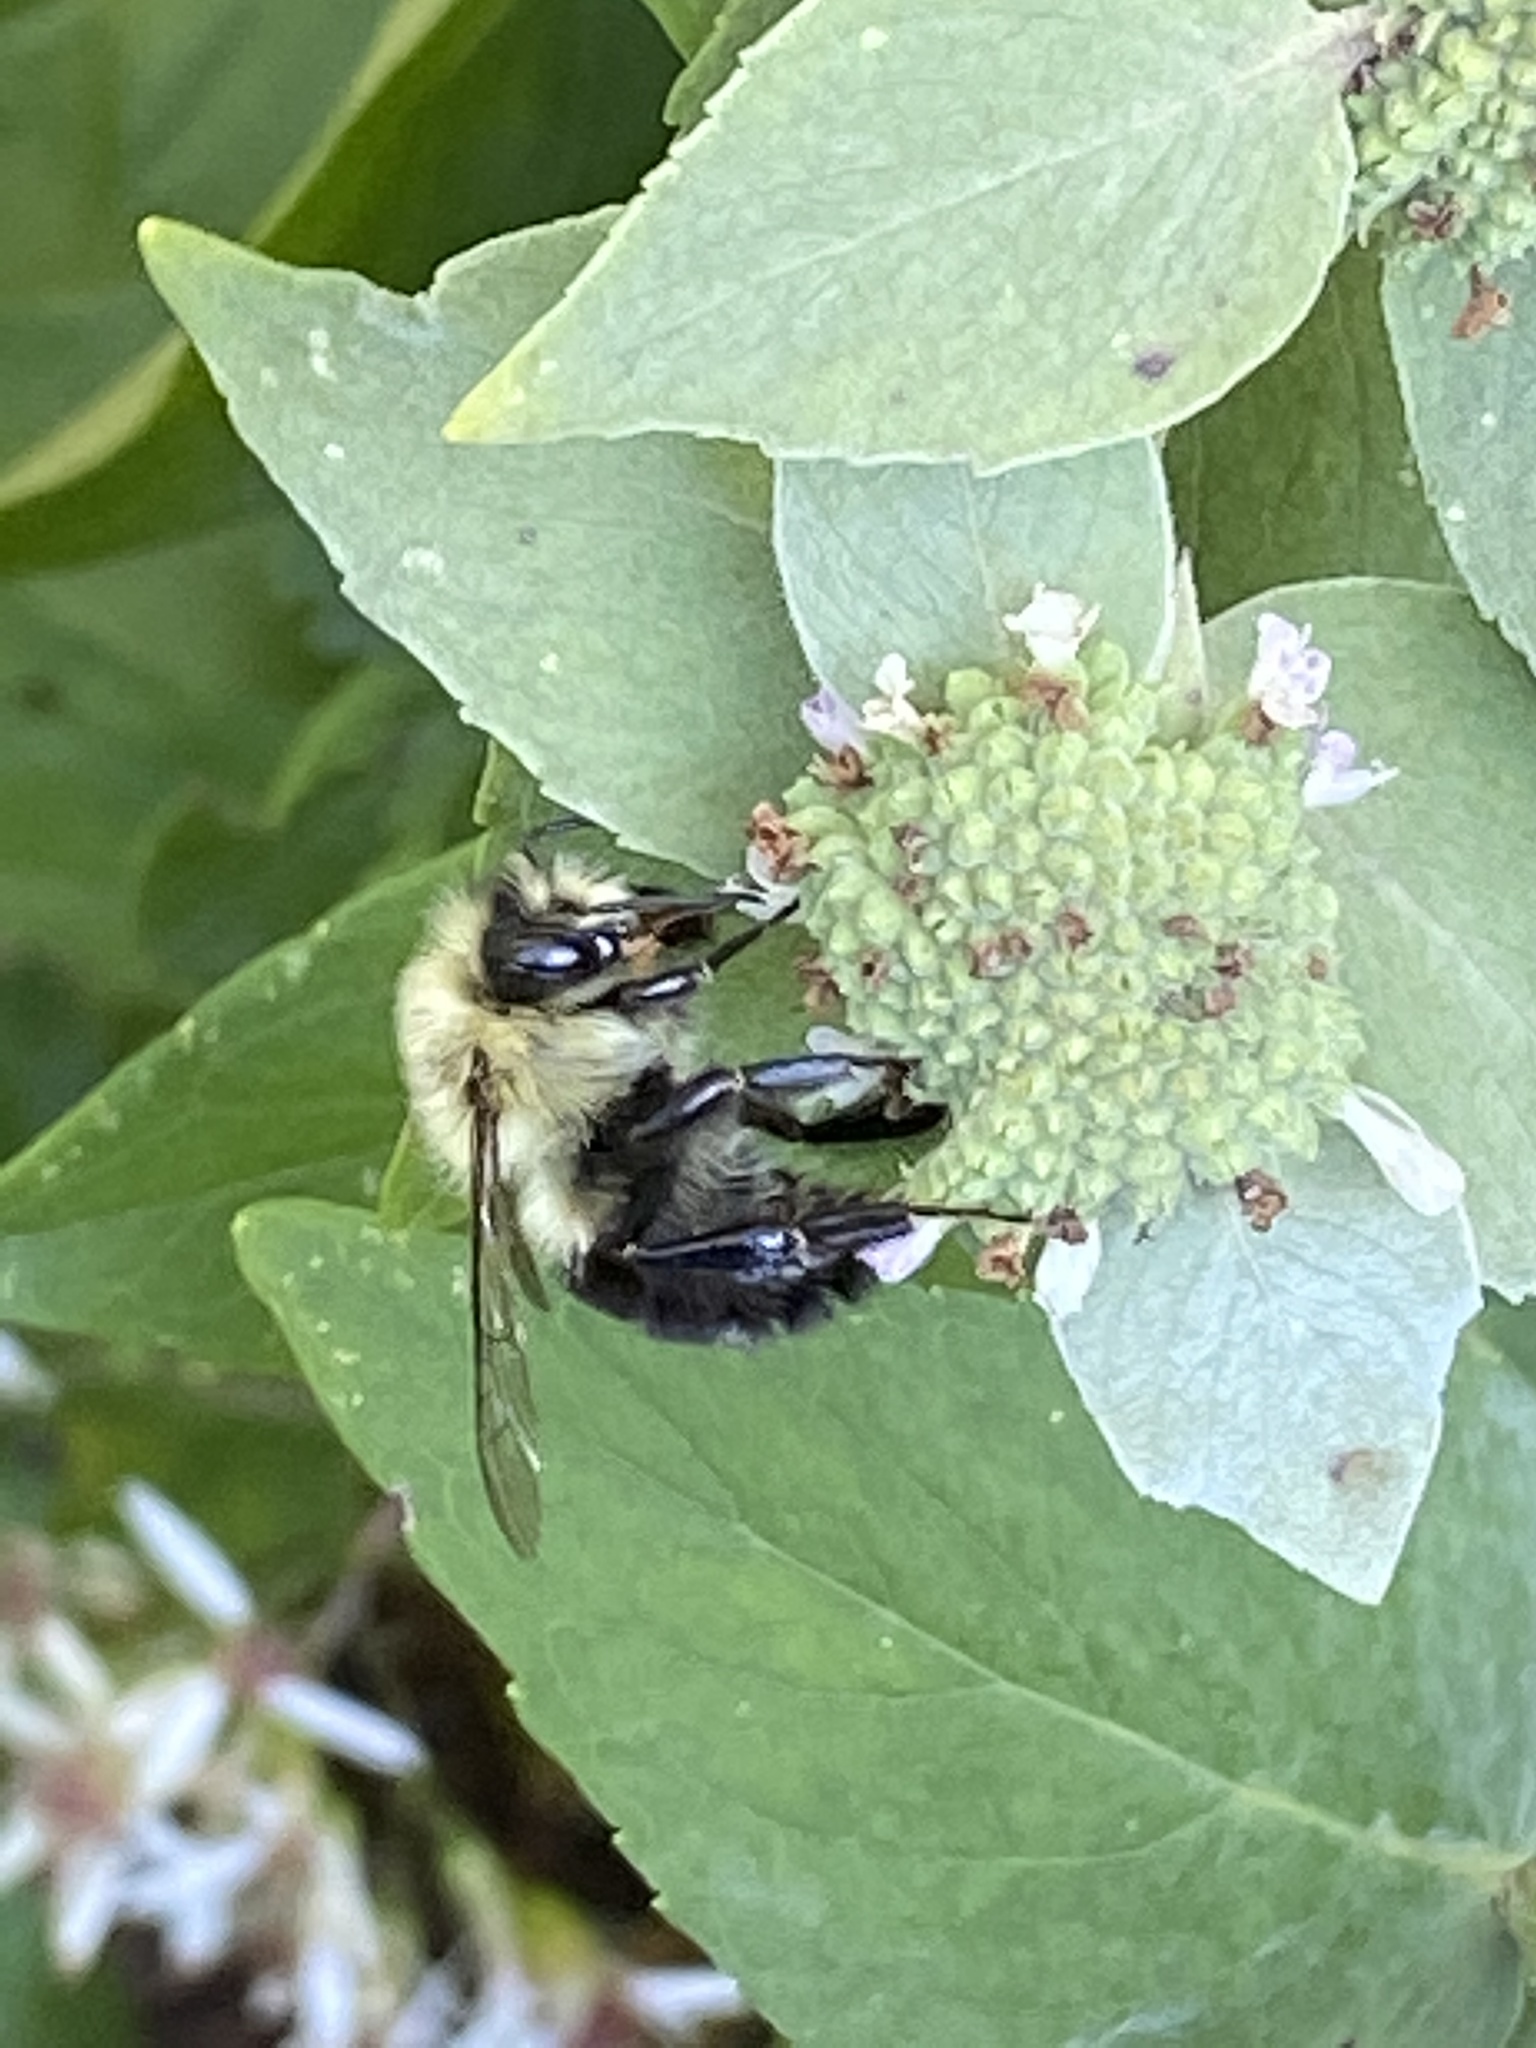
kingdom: Animalia
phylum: Arthropoda
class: Insecta
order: Hymenoptera
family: Apidae
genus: Bombus
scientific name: Bombus impatiens
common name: Common eastern bumble bee
